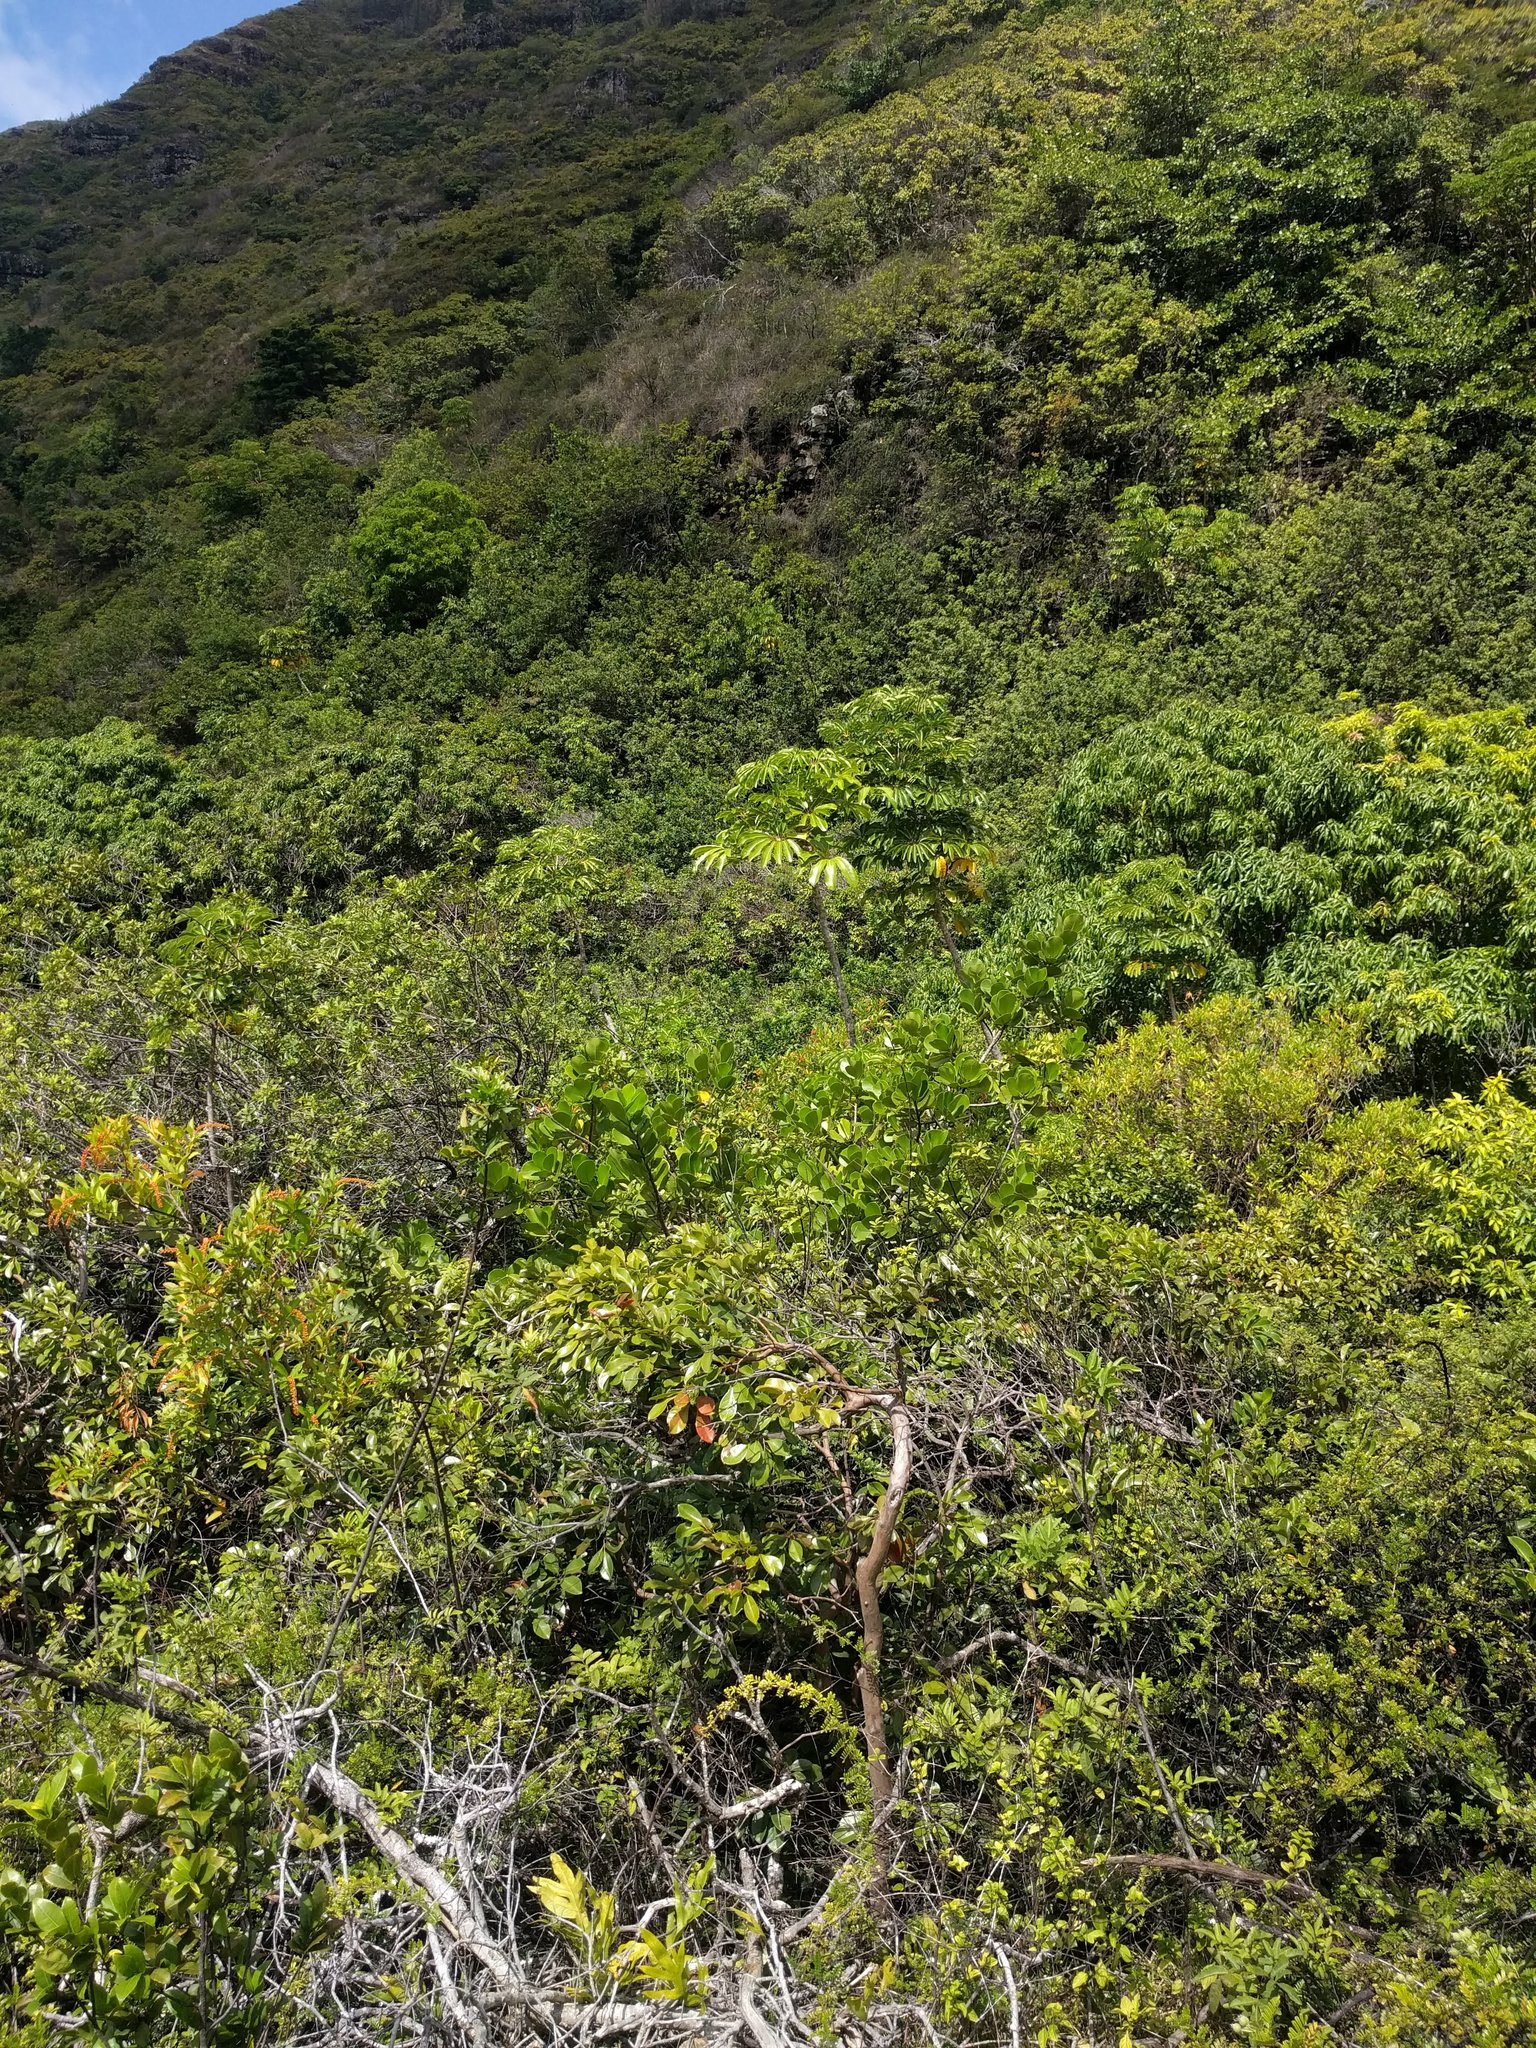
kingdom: Plantae
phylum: Tracheophyta
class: Magnoliopsida
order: Apiales
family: Araliaceae
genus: Heptapleurum
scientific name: Heptapleurum actinophyllum
